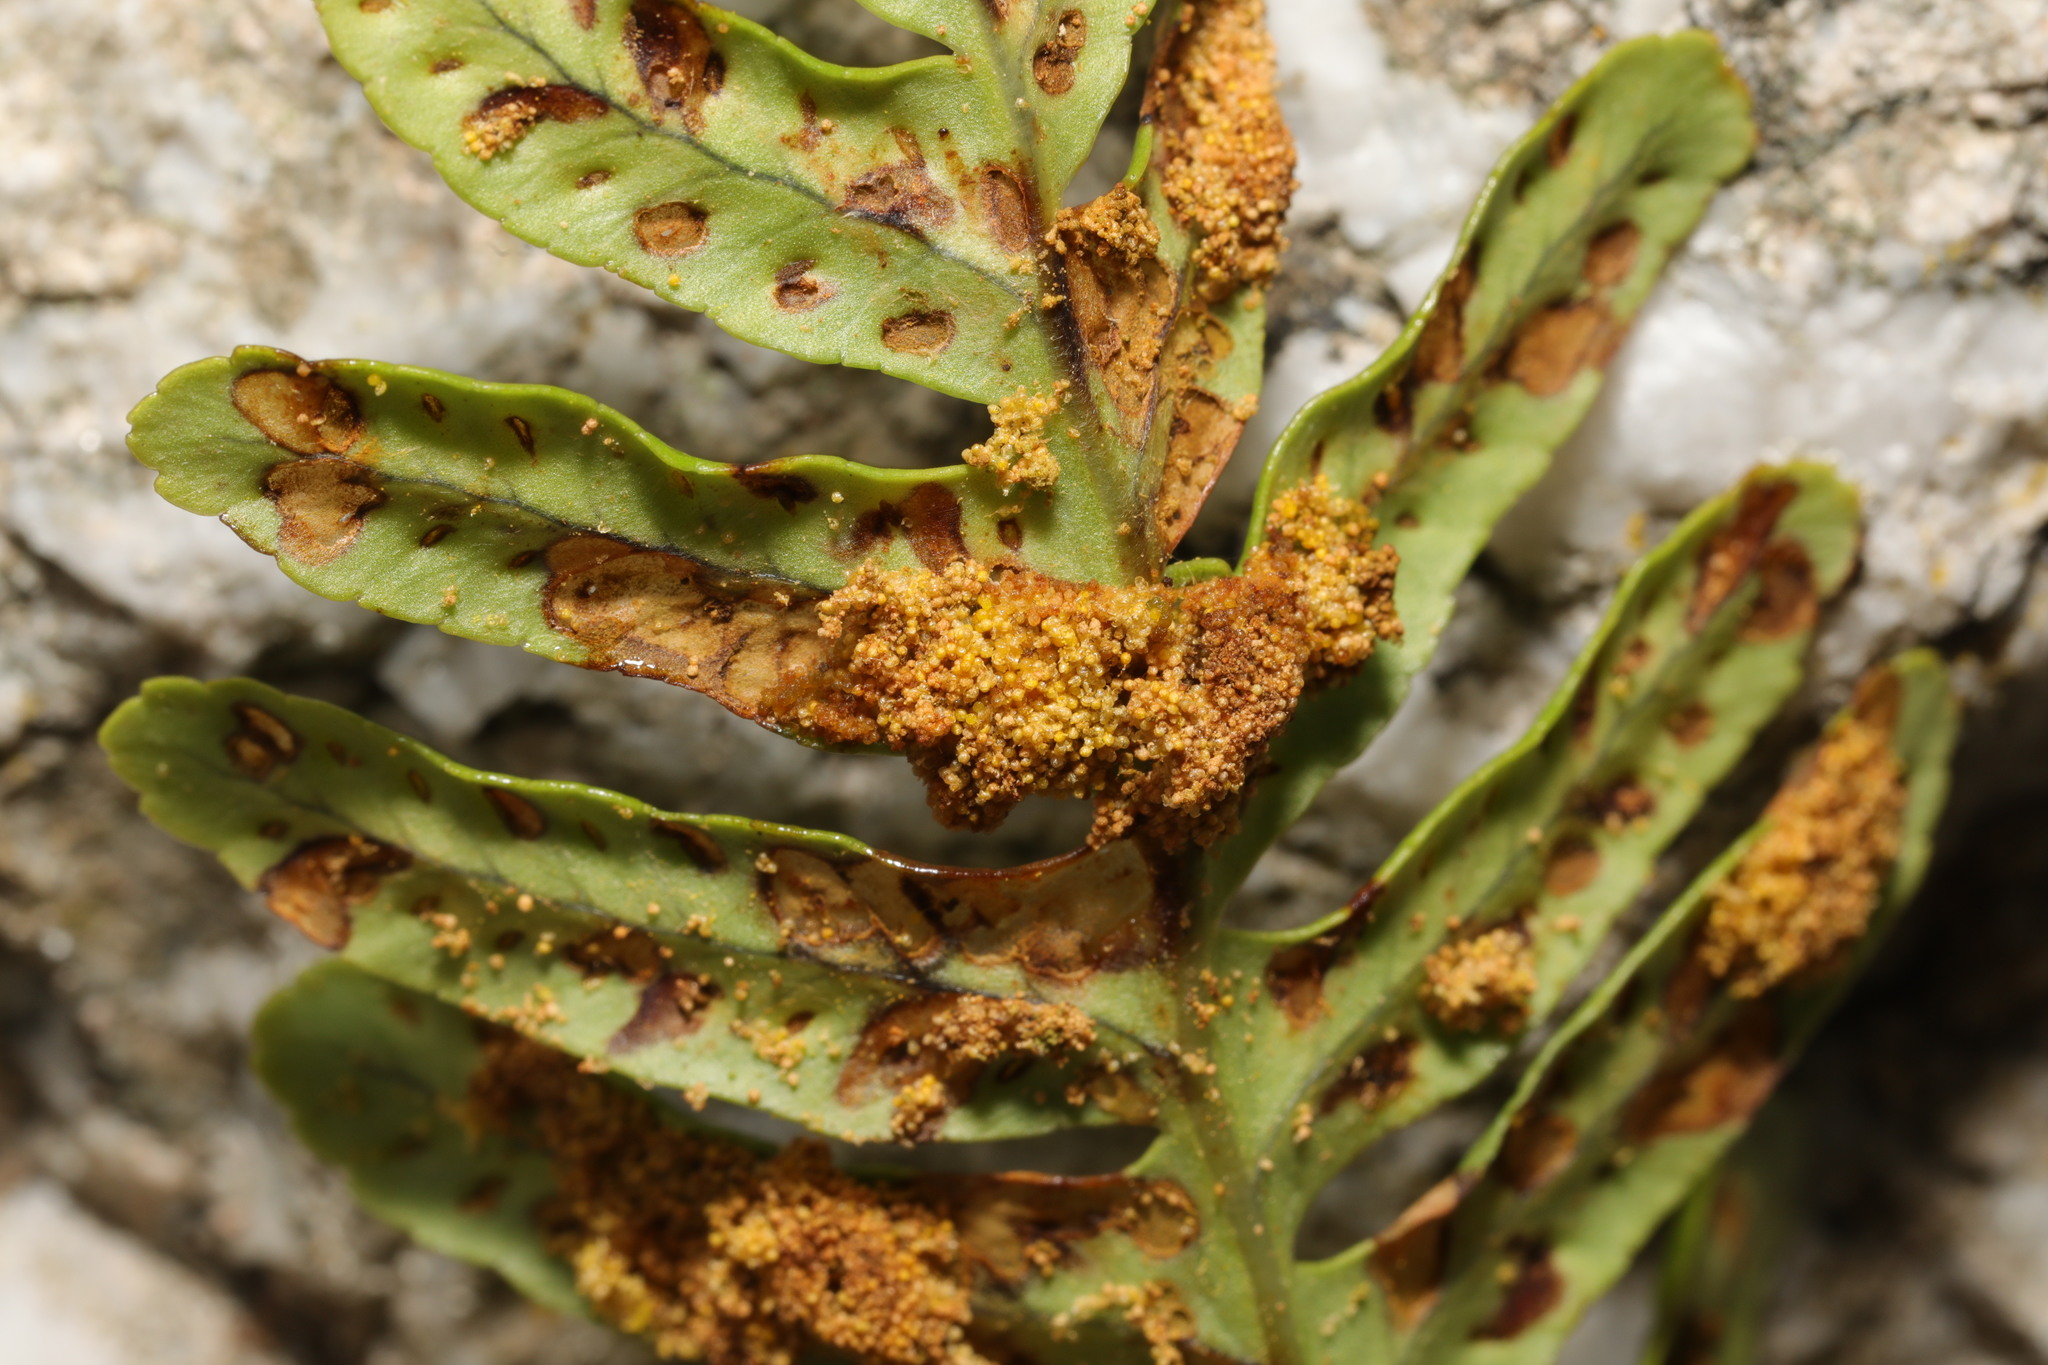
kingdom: Animalia
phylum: Arthropoda
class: Insecta
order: Lepidoptera
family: Tineidae
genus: Psychoides
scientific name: Psychoides filicivora
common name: Fern smut
